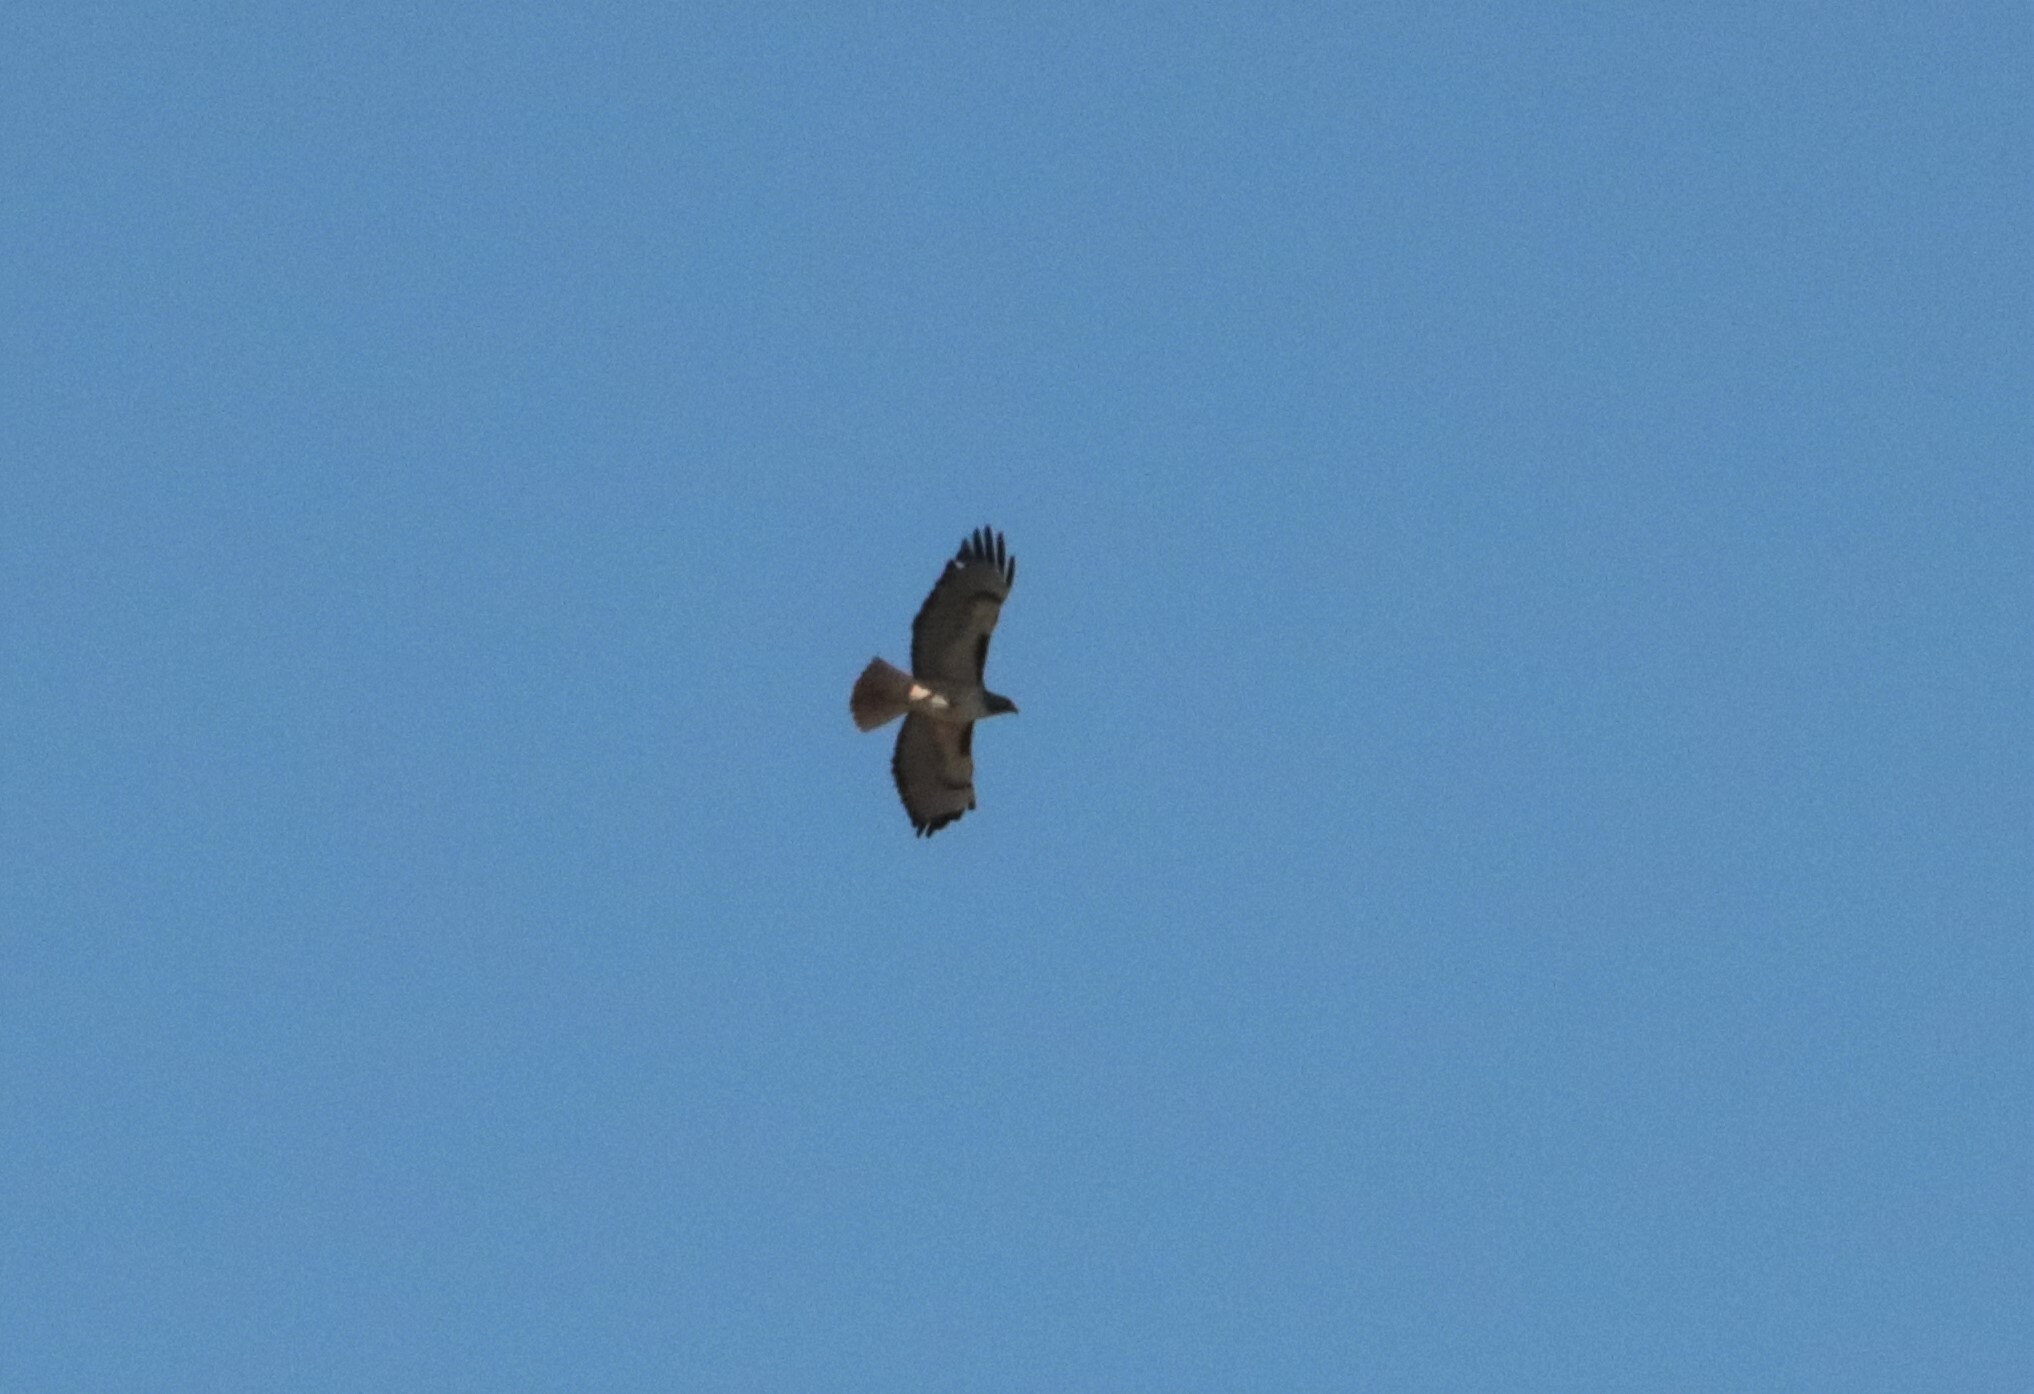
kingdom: Animalia
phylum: Chordata
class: Aves
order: Accipitriformes
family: Accipitridae
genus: Buteo
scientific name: Buteo jamaicensis
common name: Red-tailed hawk
